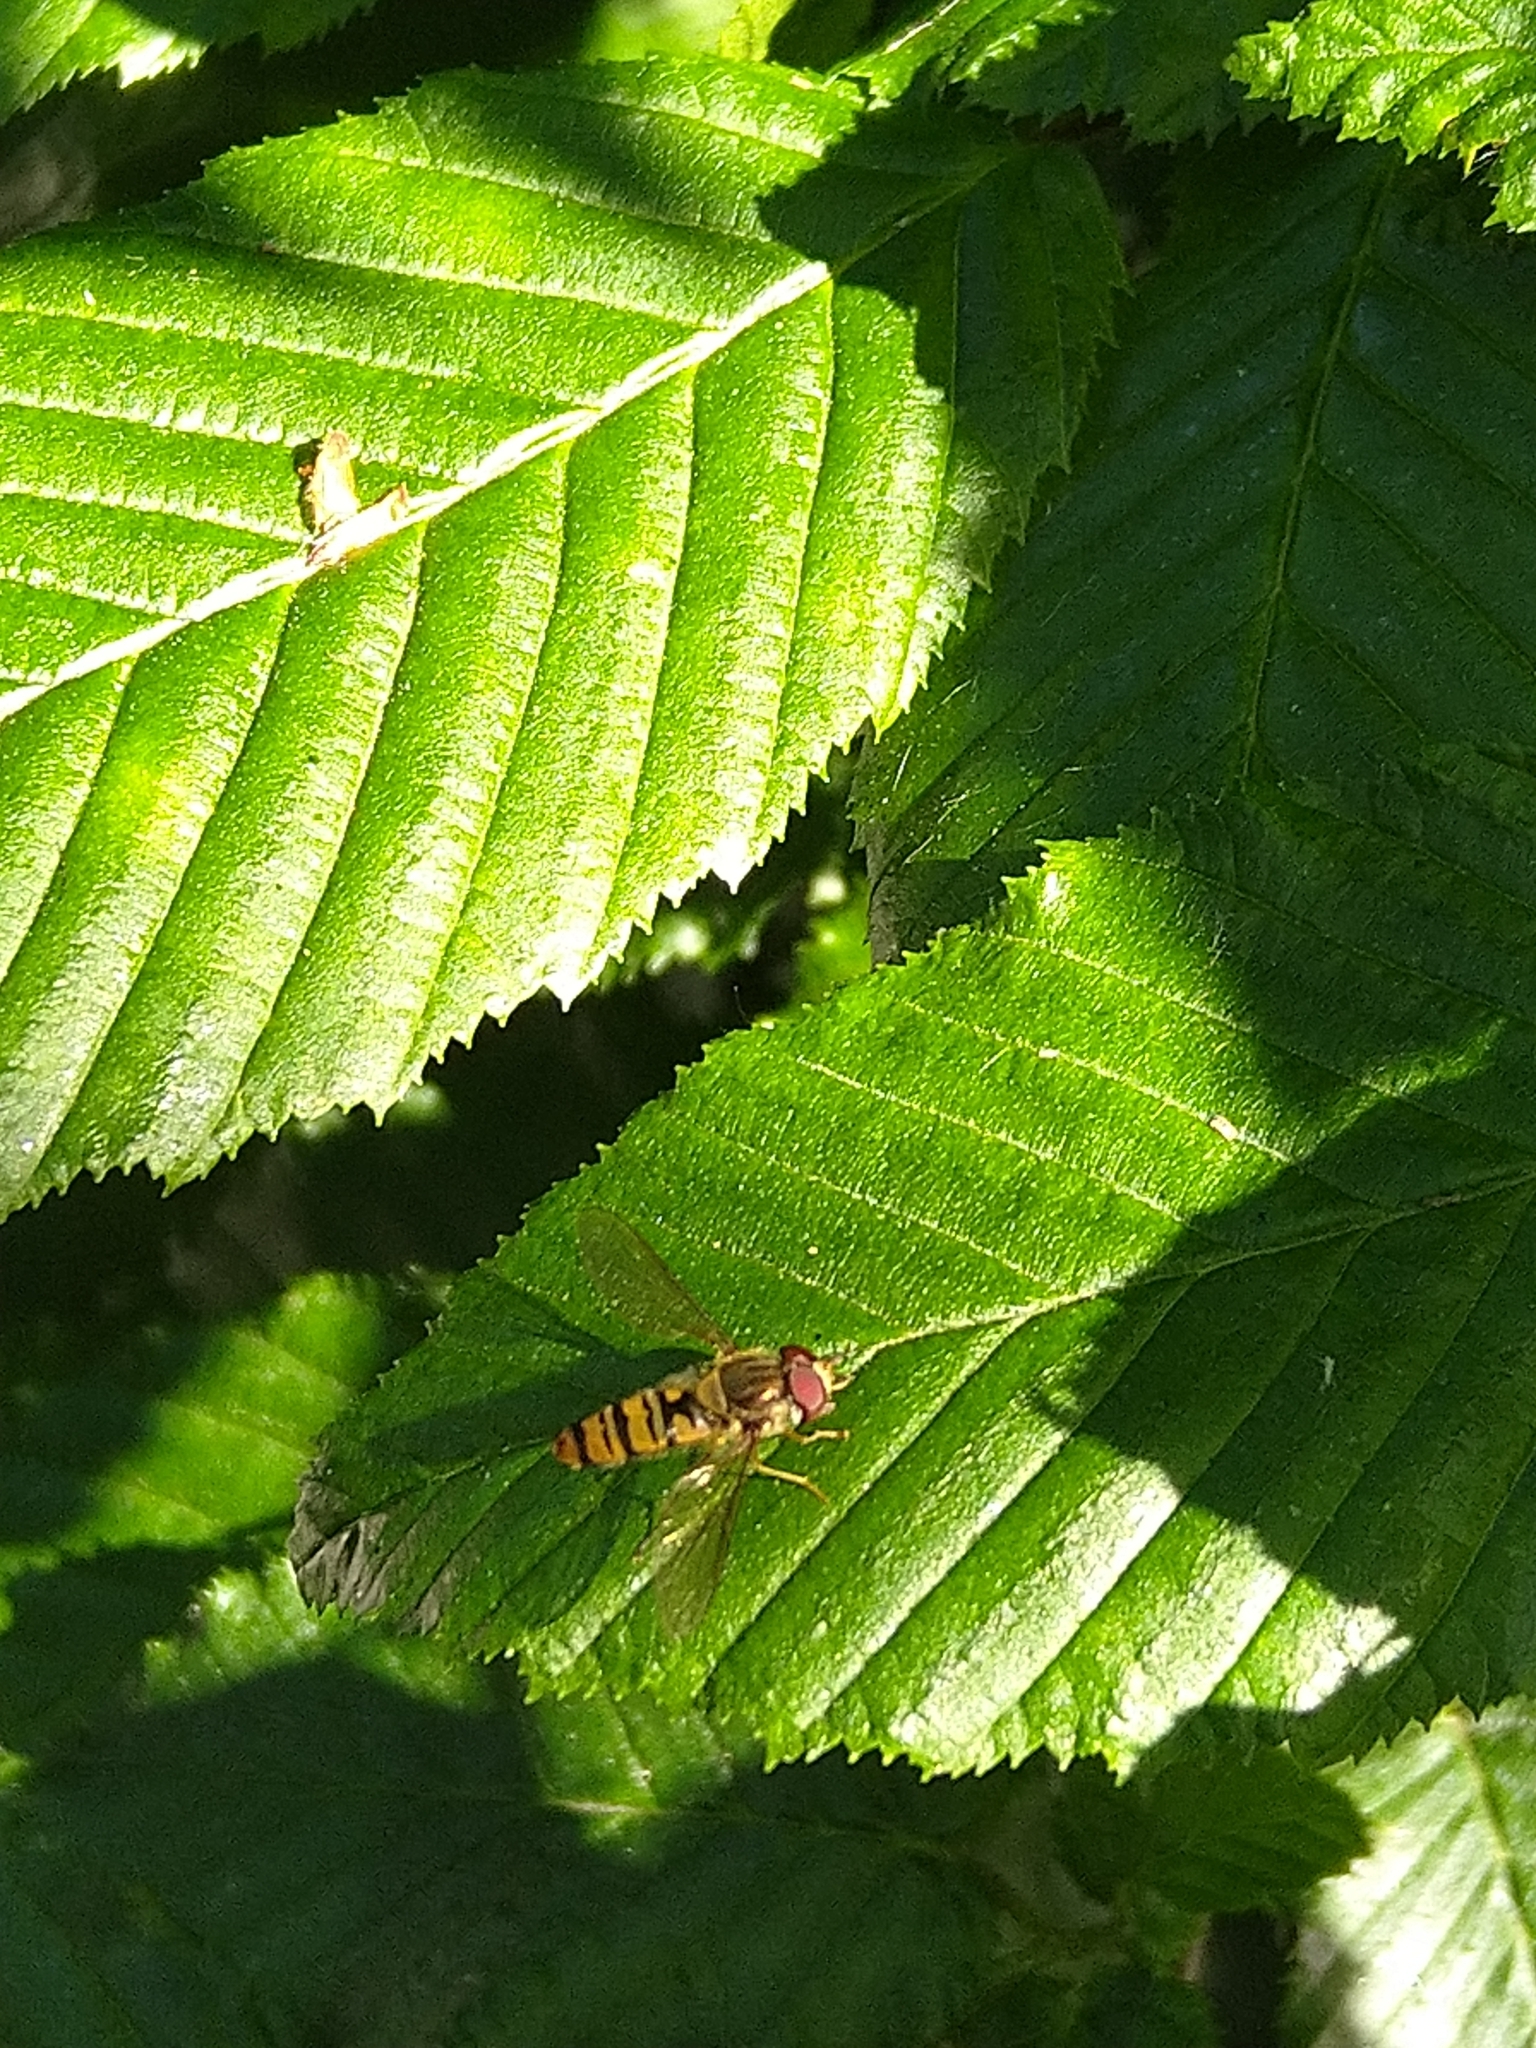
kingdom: Animalia
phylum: Arthropoda
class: Insecta
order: Diptera
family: Syrphidae
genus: Episyrphus
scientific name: Episyrphus balteatus
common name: Marmalade hoverfly
